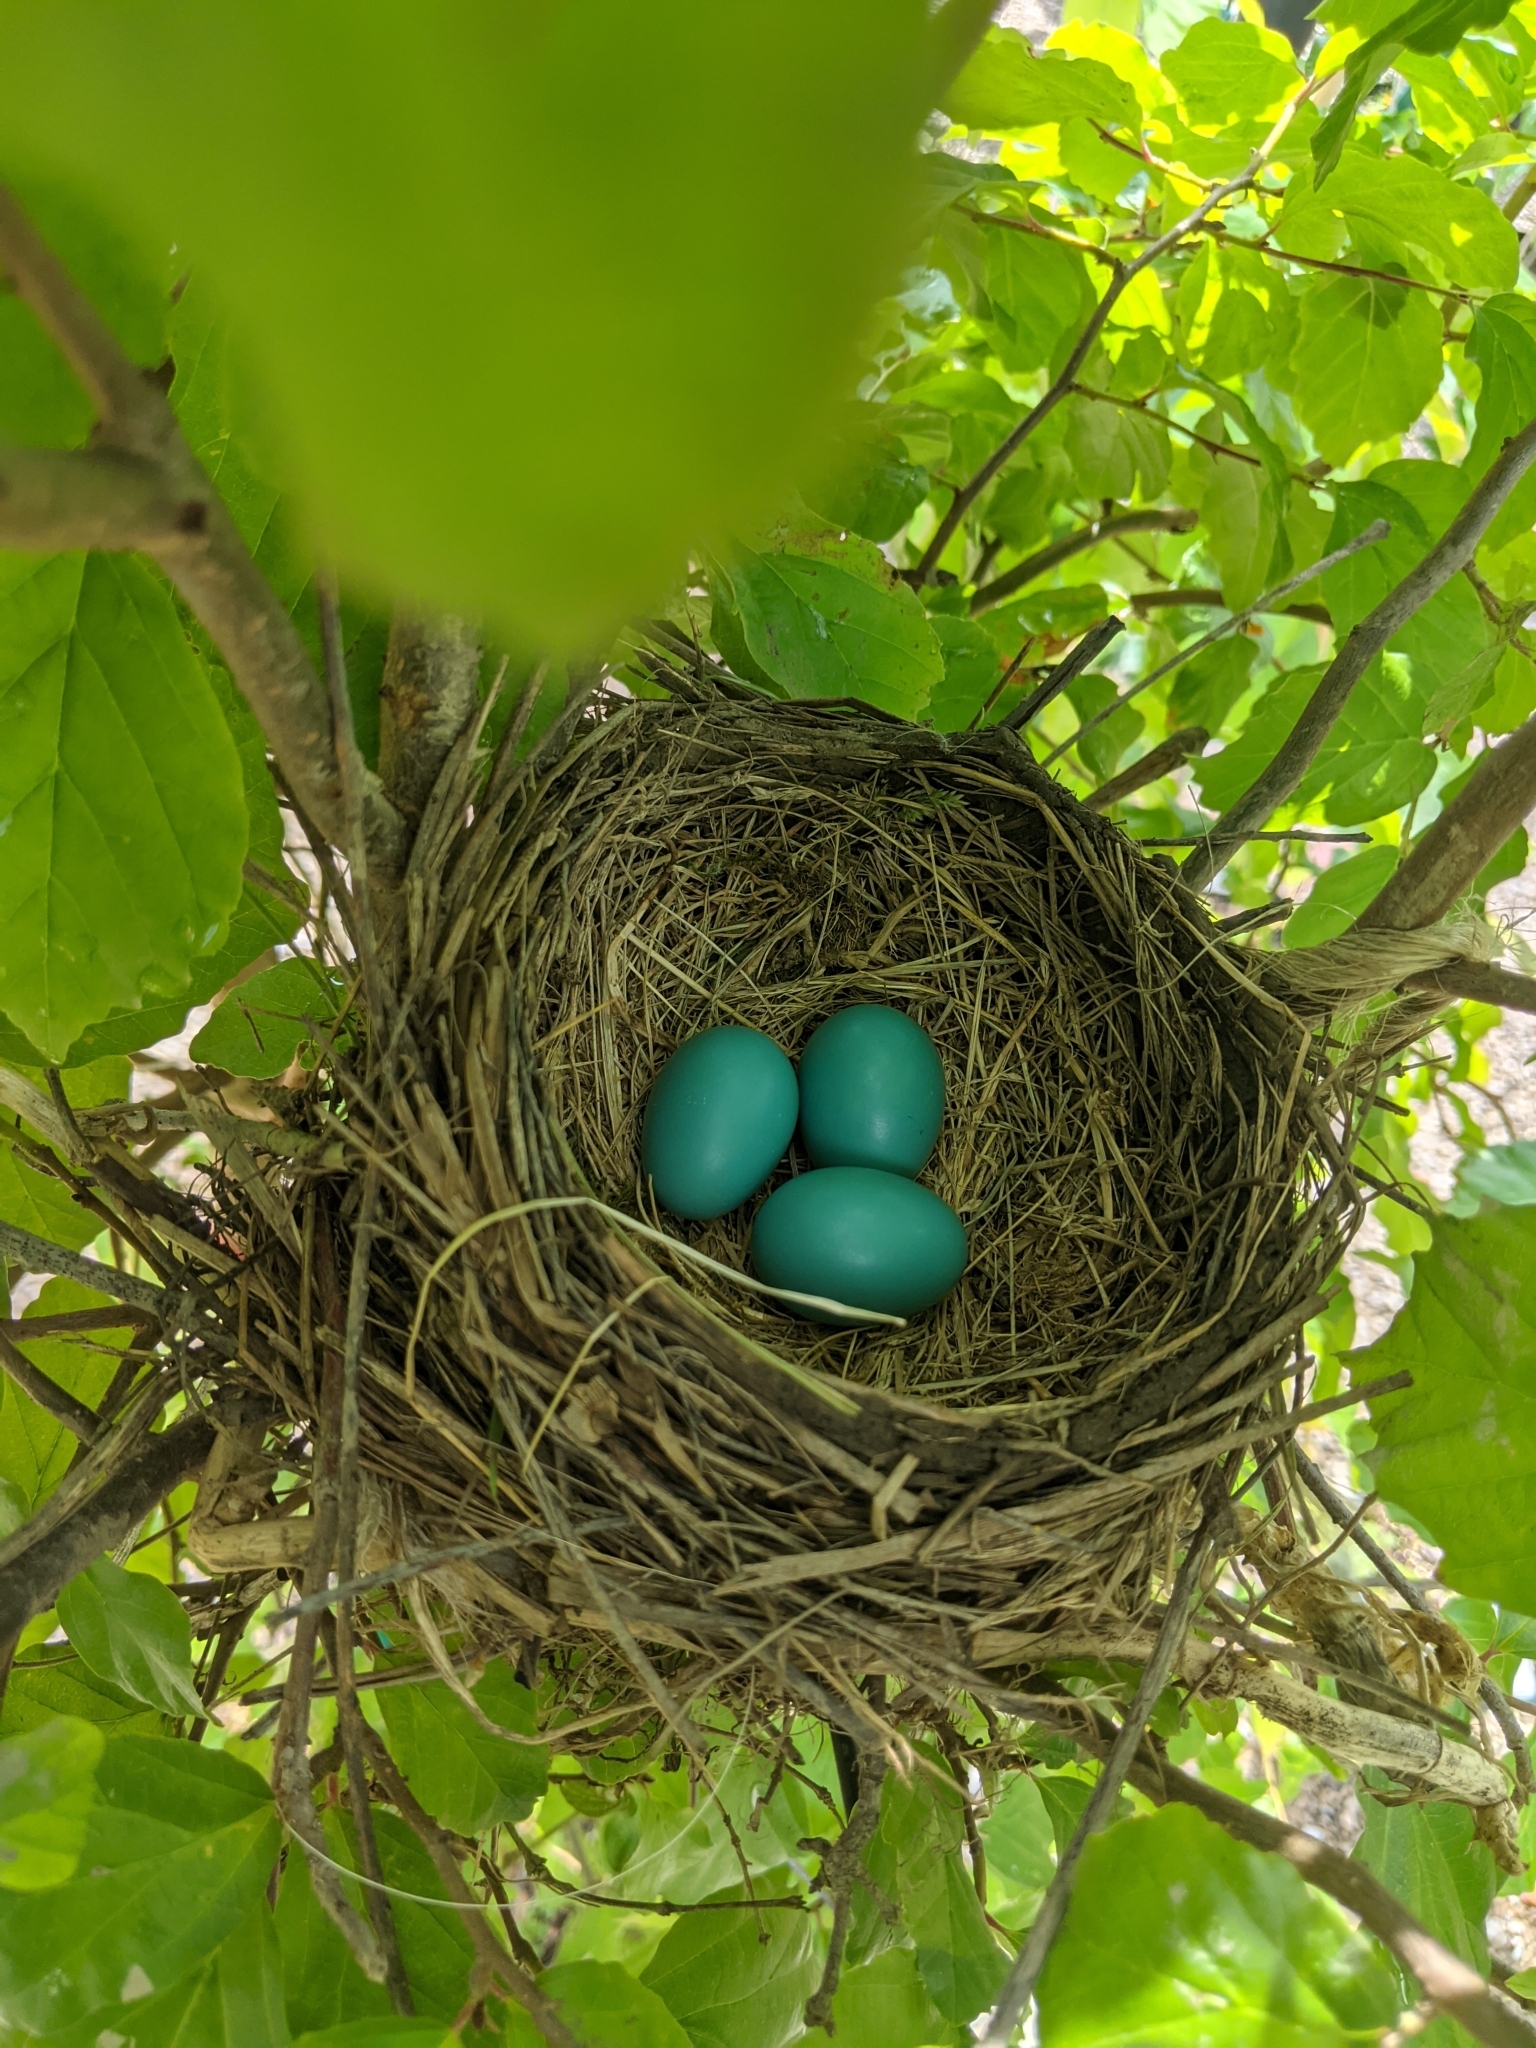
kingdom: Animalia
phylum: Chordata
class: Aves
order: Passeriformes
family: Turdidae
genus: Turdus
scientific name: Turdus migratorius
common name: American robin
